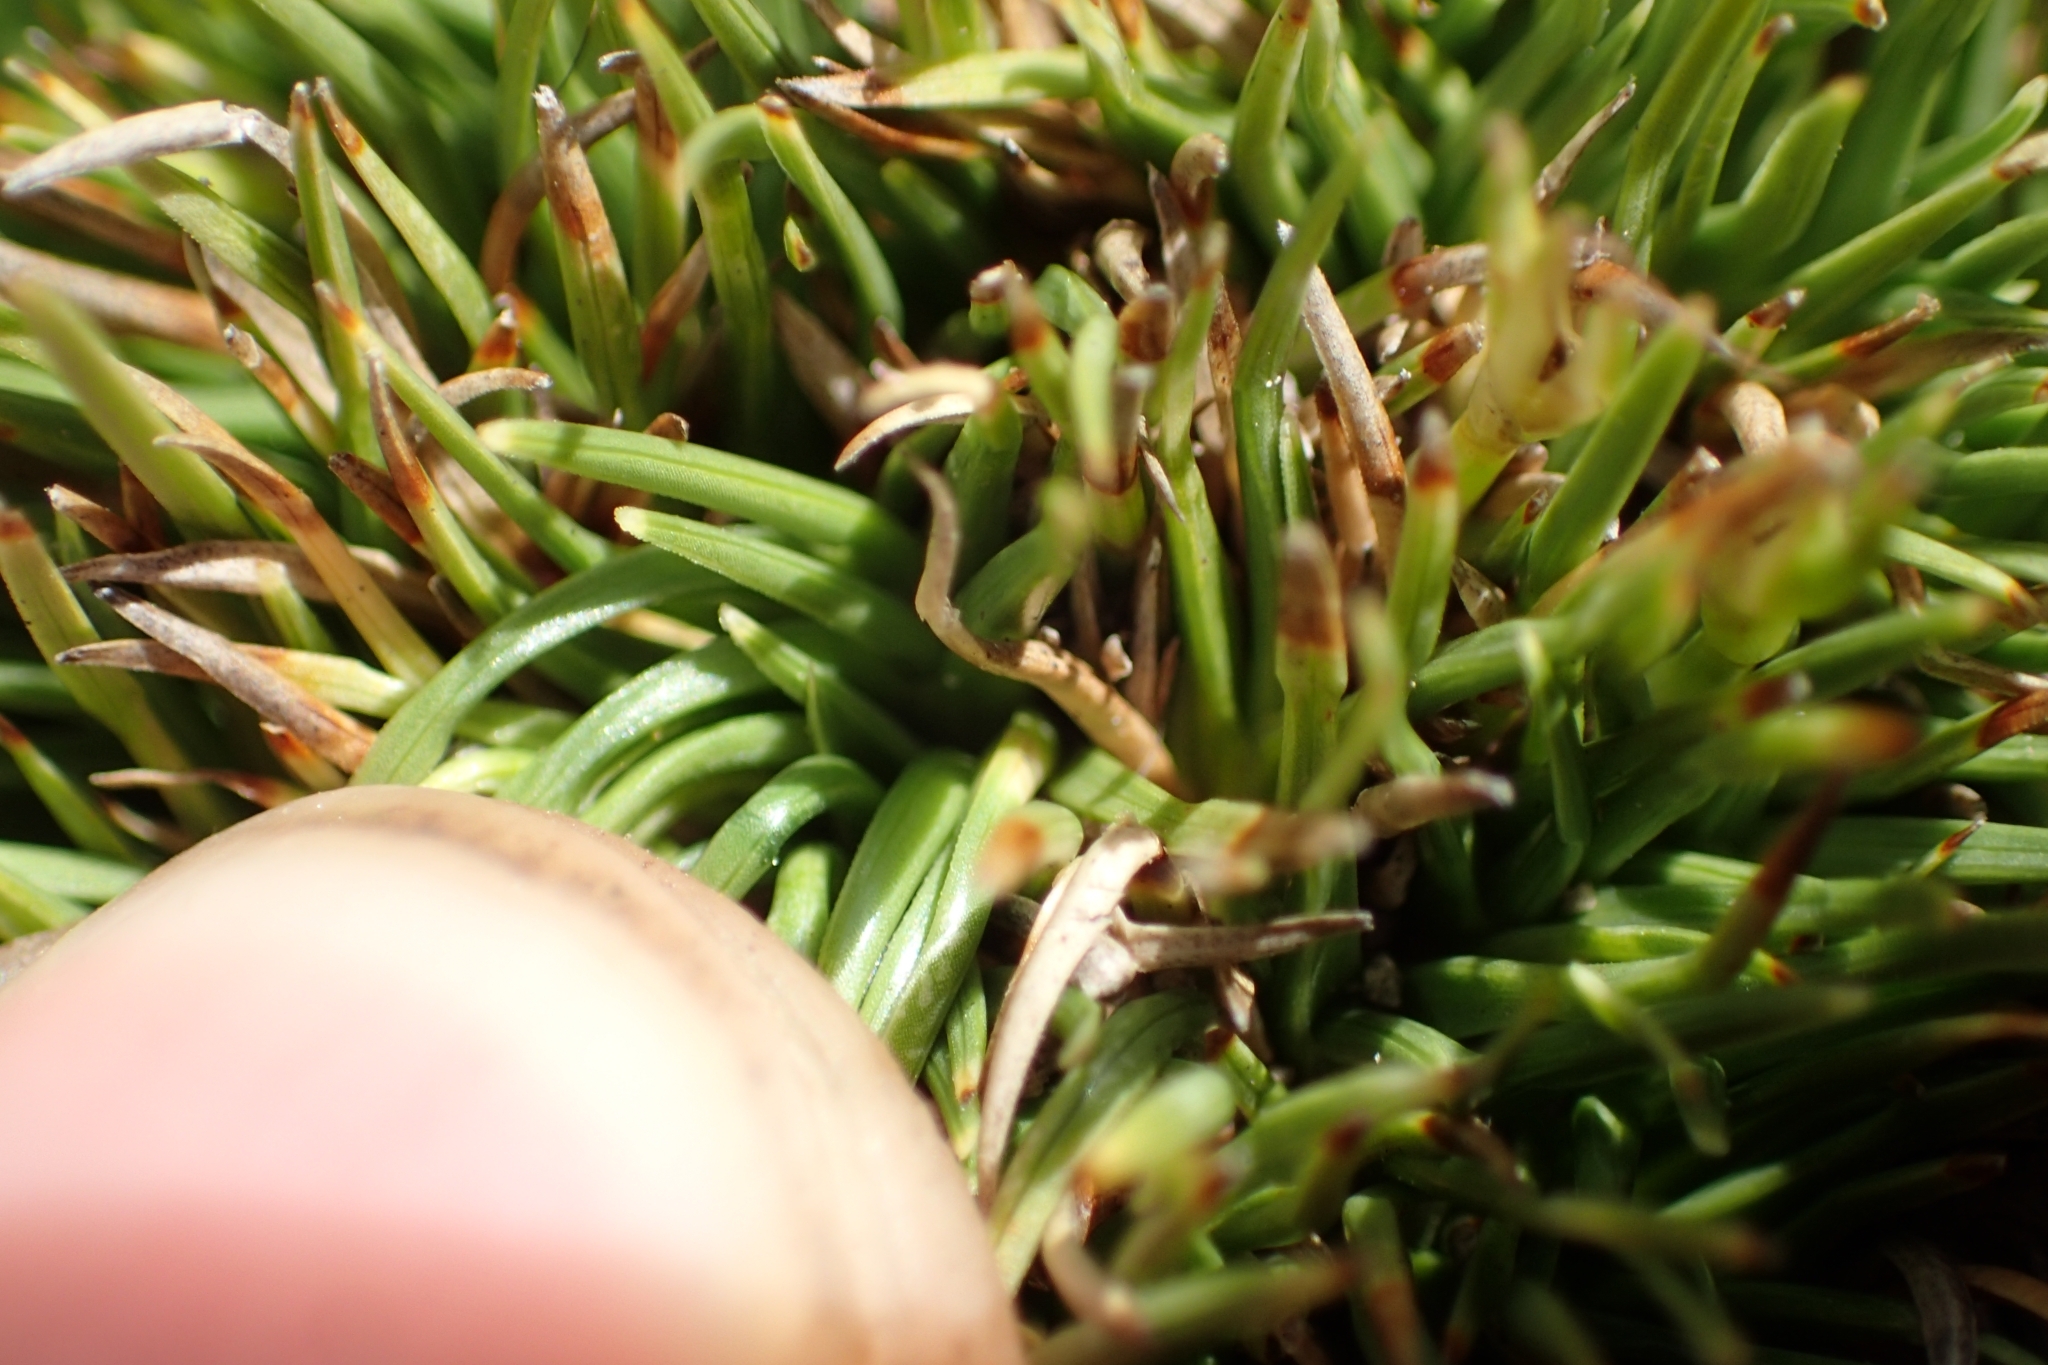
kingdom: Plantae
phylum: Tracheophyta
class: Liliopsida
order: Poales
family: Cyperaceae
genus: Oreobolus
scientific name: Oreobolus pectinatus
